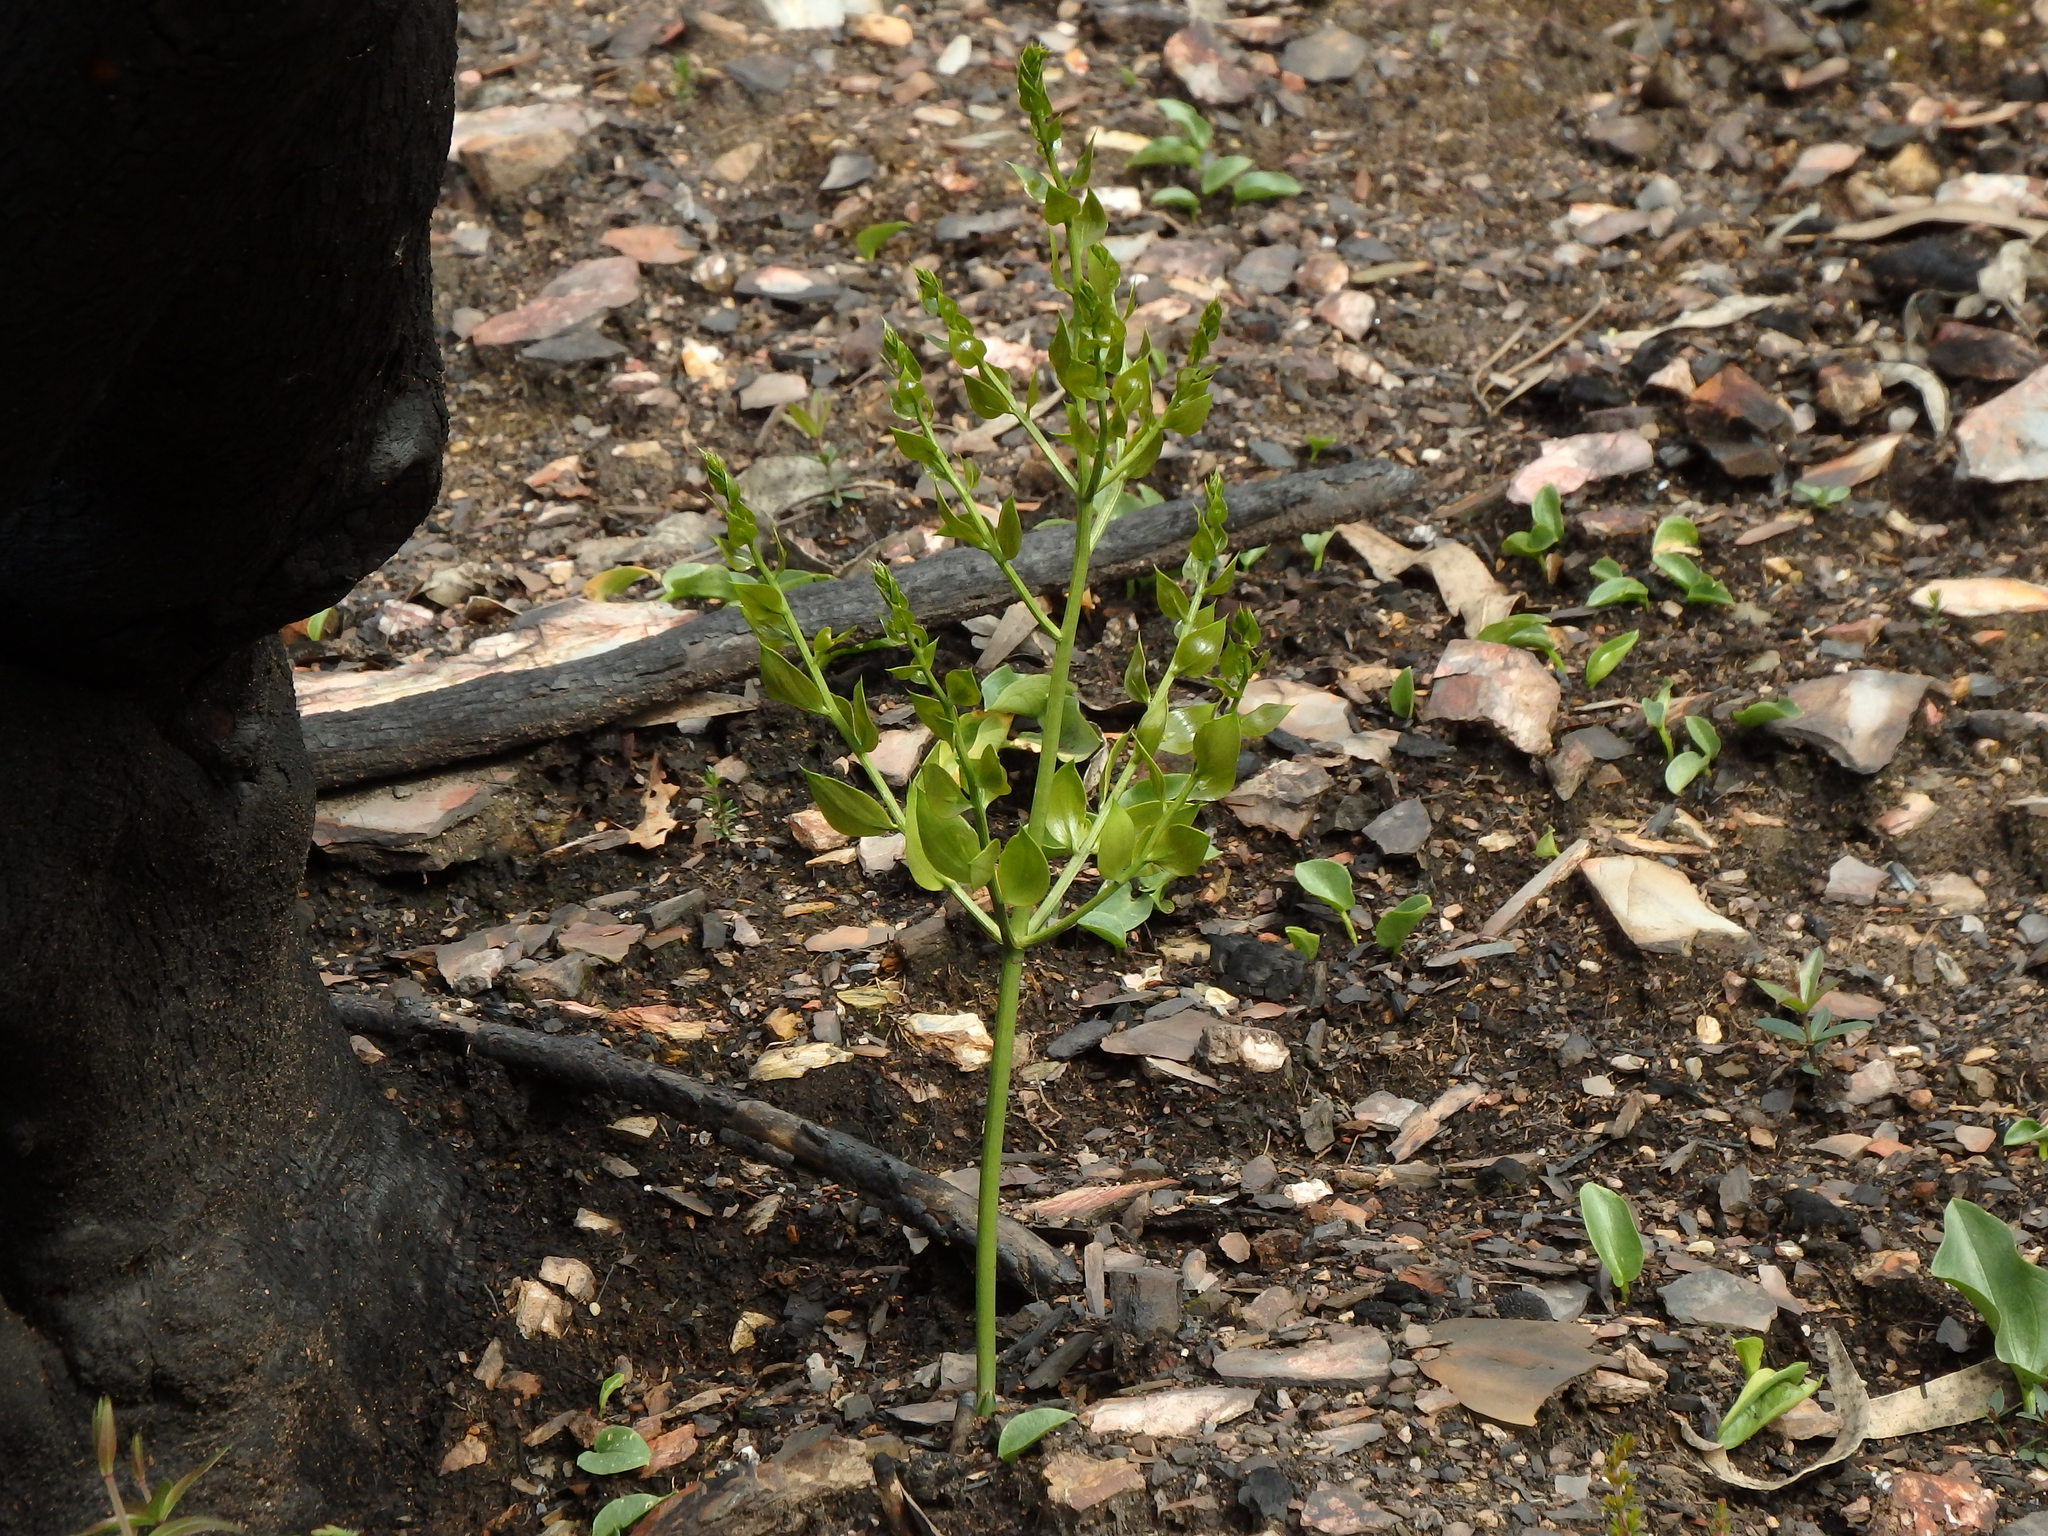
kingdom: Plantae
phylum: Tracheophyta
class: Liliopsida
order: Asparagales
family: Asparagaceae
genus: Ruscus
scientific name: Ruscus aculeatus
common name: Butcher's-broom
